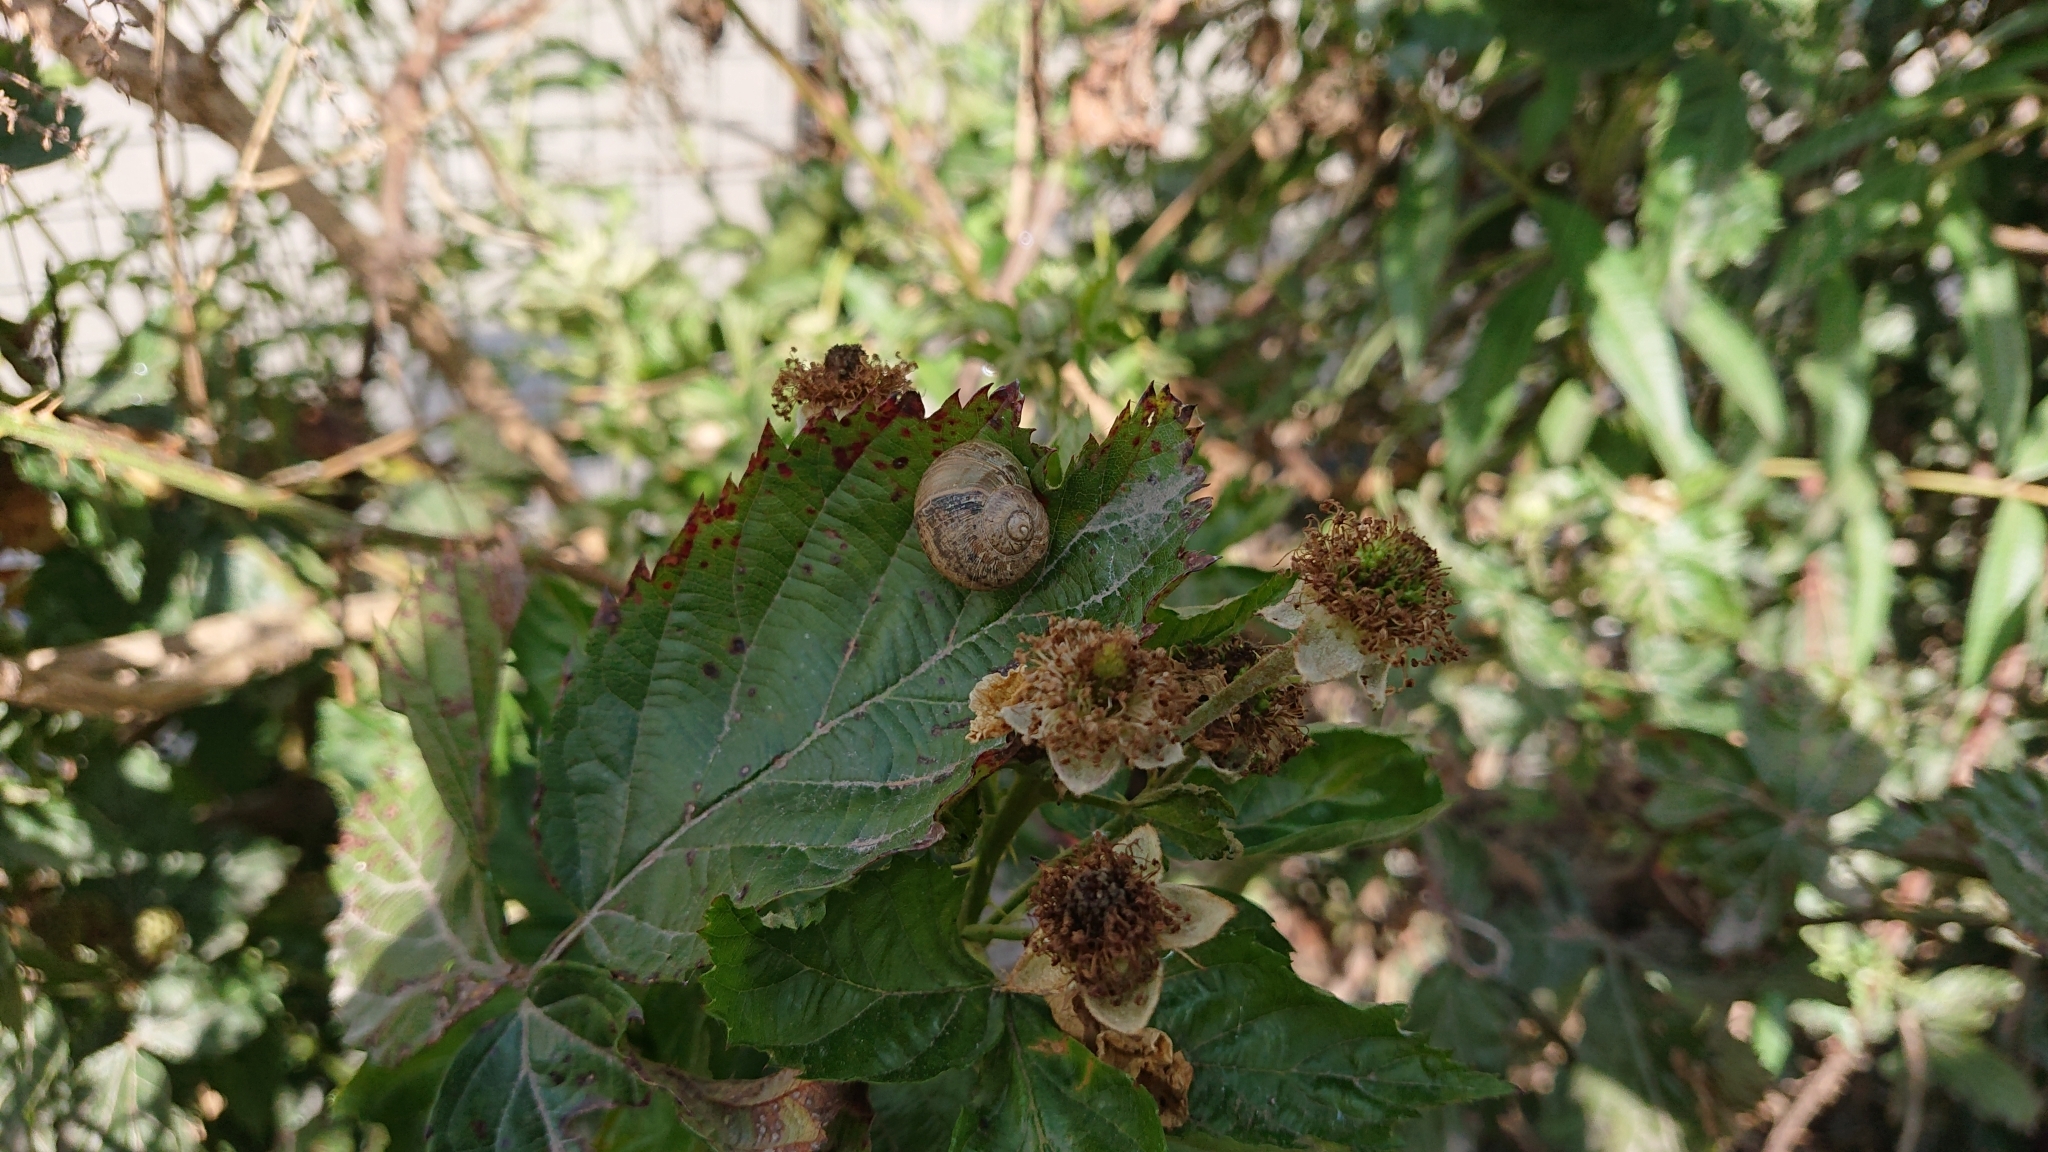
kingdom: Animalia
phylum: Mollusca
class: Gastropoda
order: Stylommatophora
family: Helicidae
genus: Cornu
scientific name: Cornu aspersum
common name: Brown garden snail
